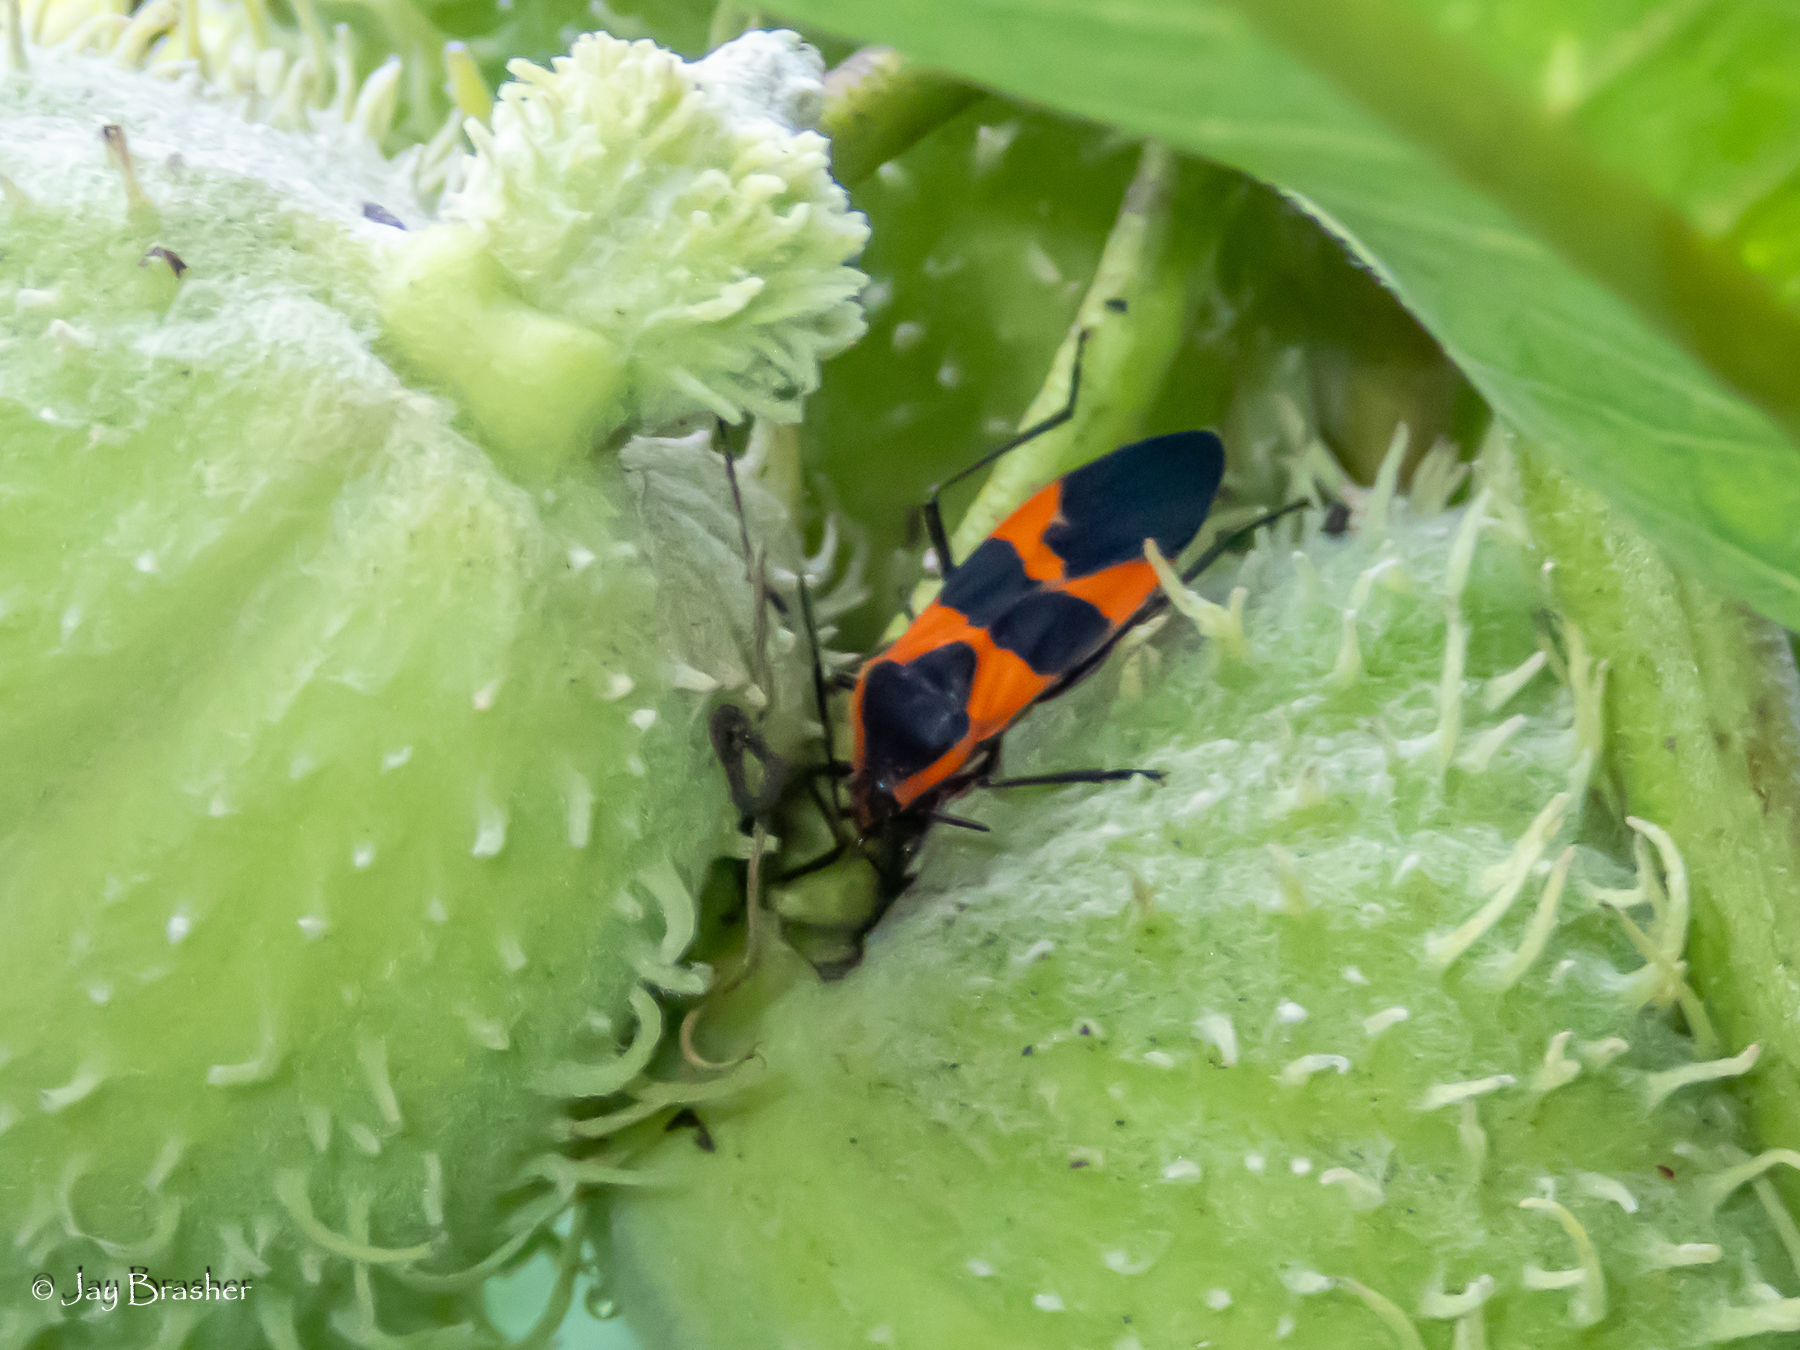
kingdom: Animalia
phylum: Arthropoda
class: Insecta
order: Hemiptera
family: Lygaeidae
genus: Oncopeltus
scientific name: Oncopeltus fasciatus
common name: Large milkweed bug
